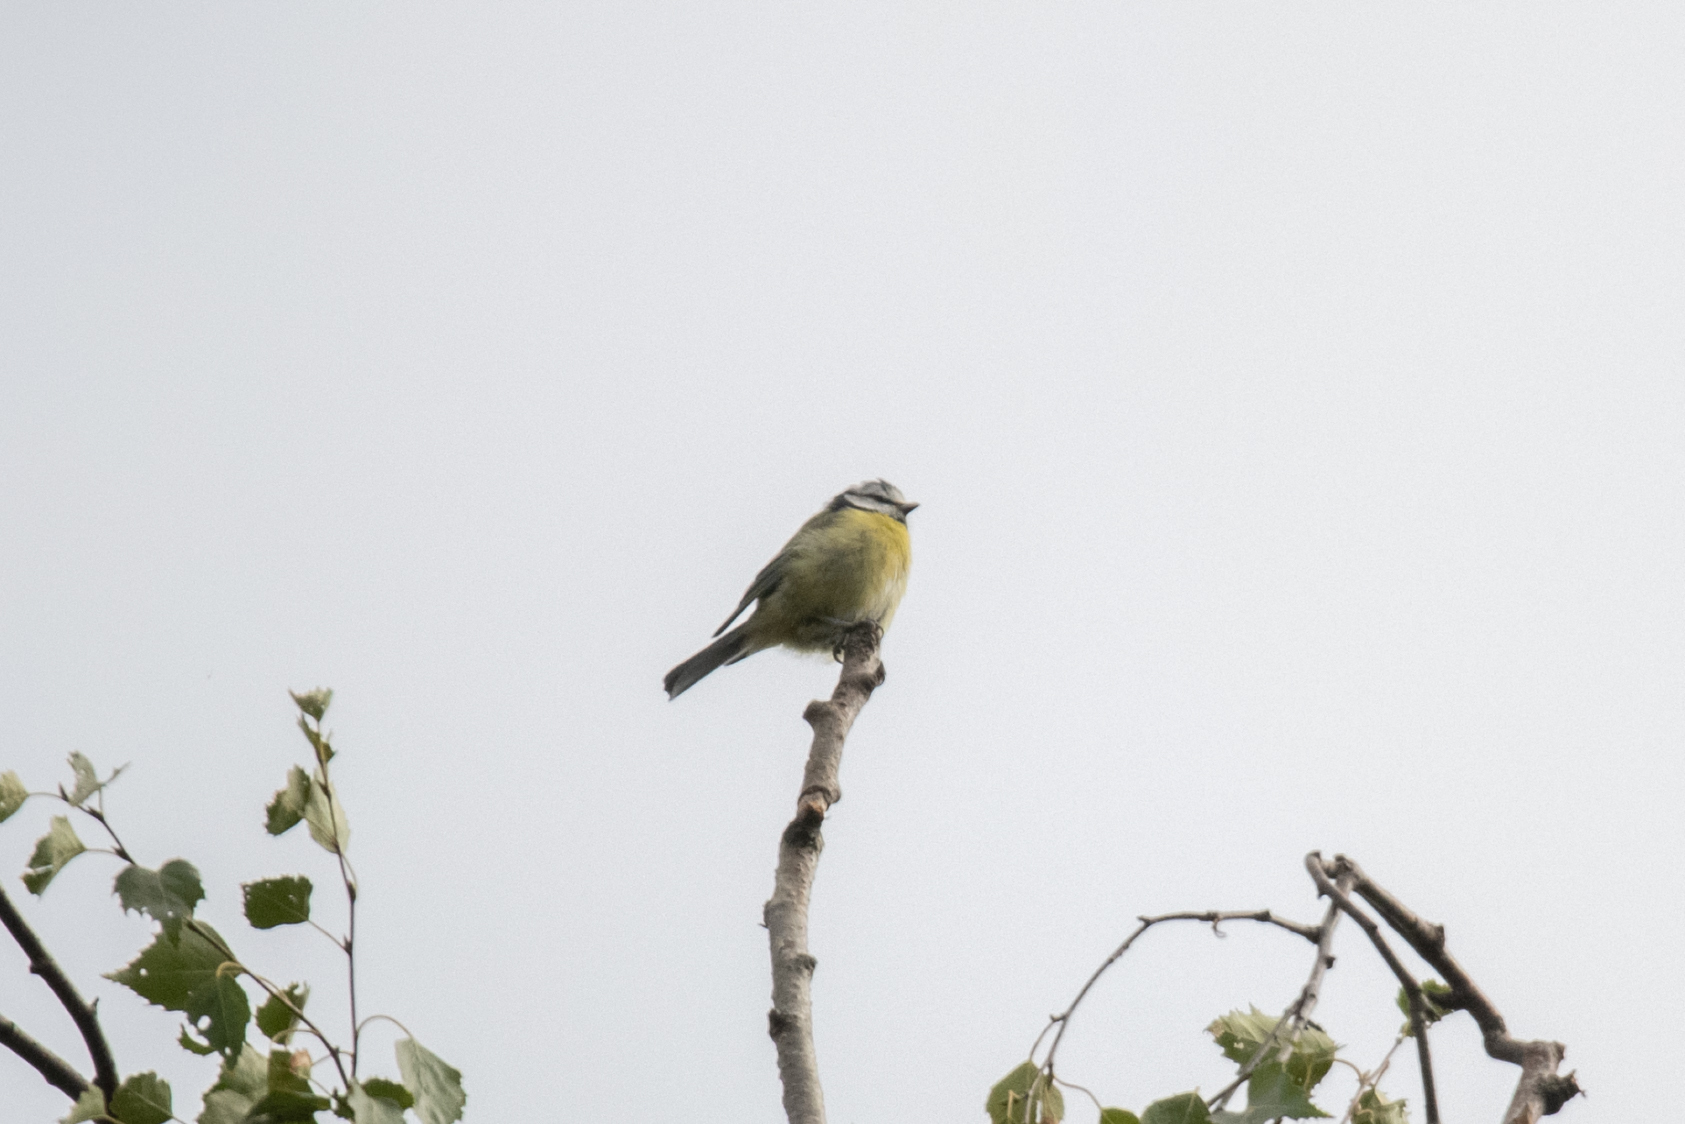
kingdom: Animalia
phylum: Chordata
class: Aves
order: Passeriformes
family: Paridae
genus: Cyanistes
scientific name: Cyanistes caeruleus
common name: Eurasian blue tit
